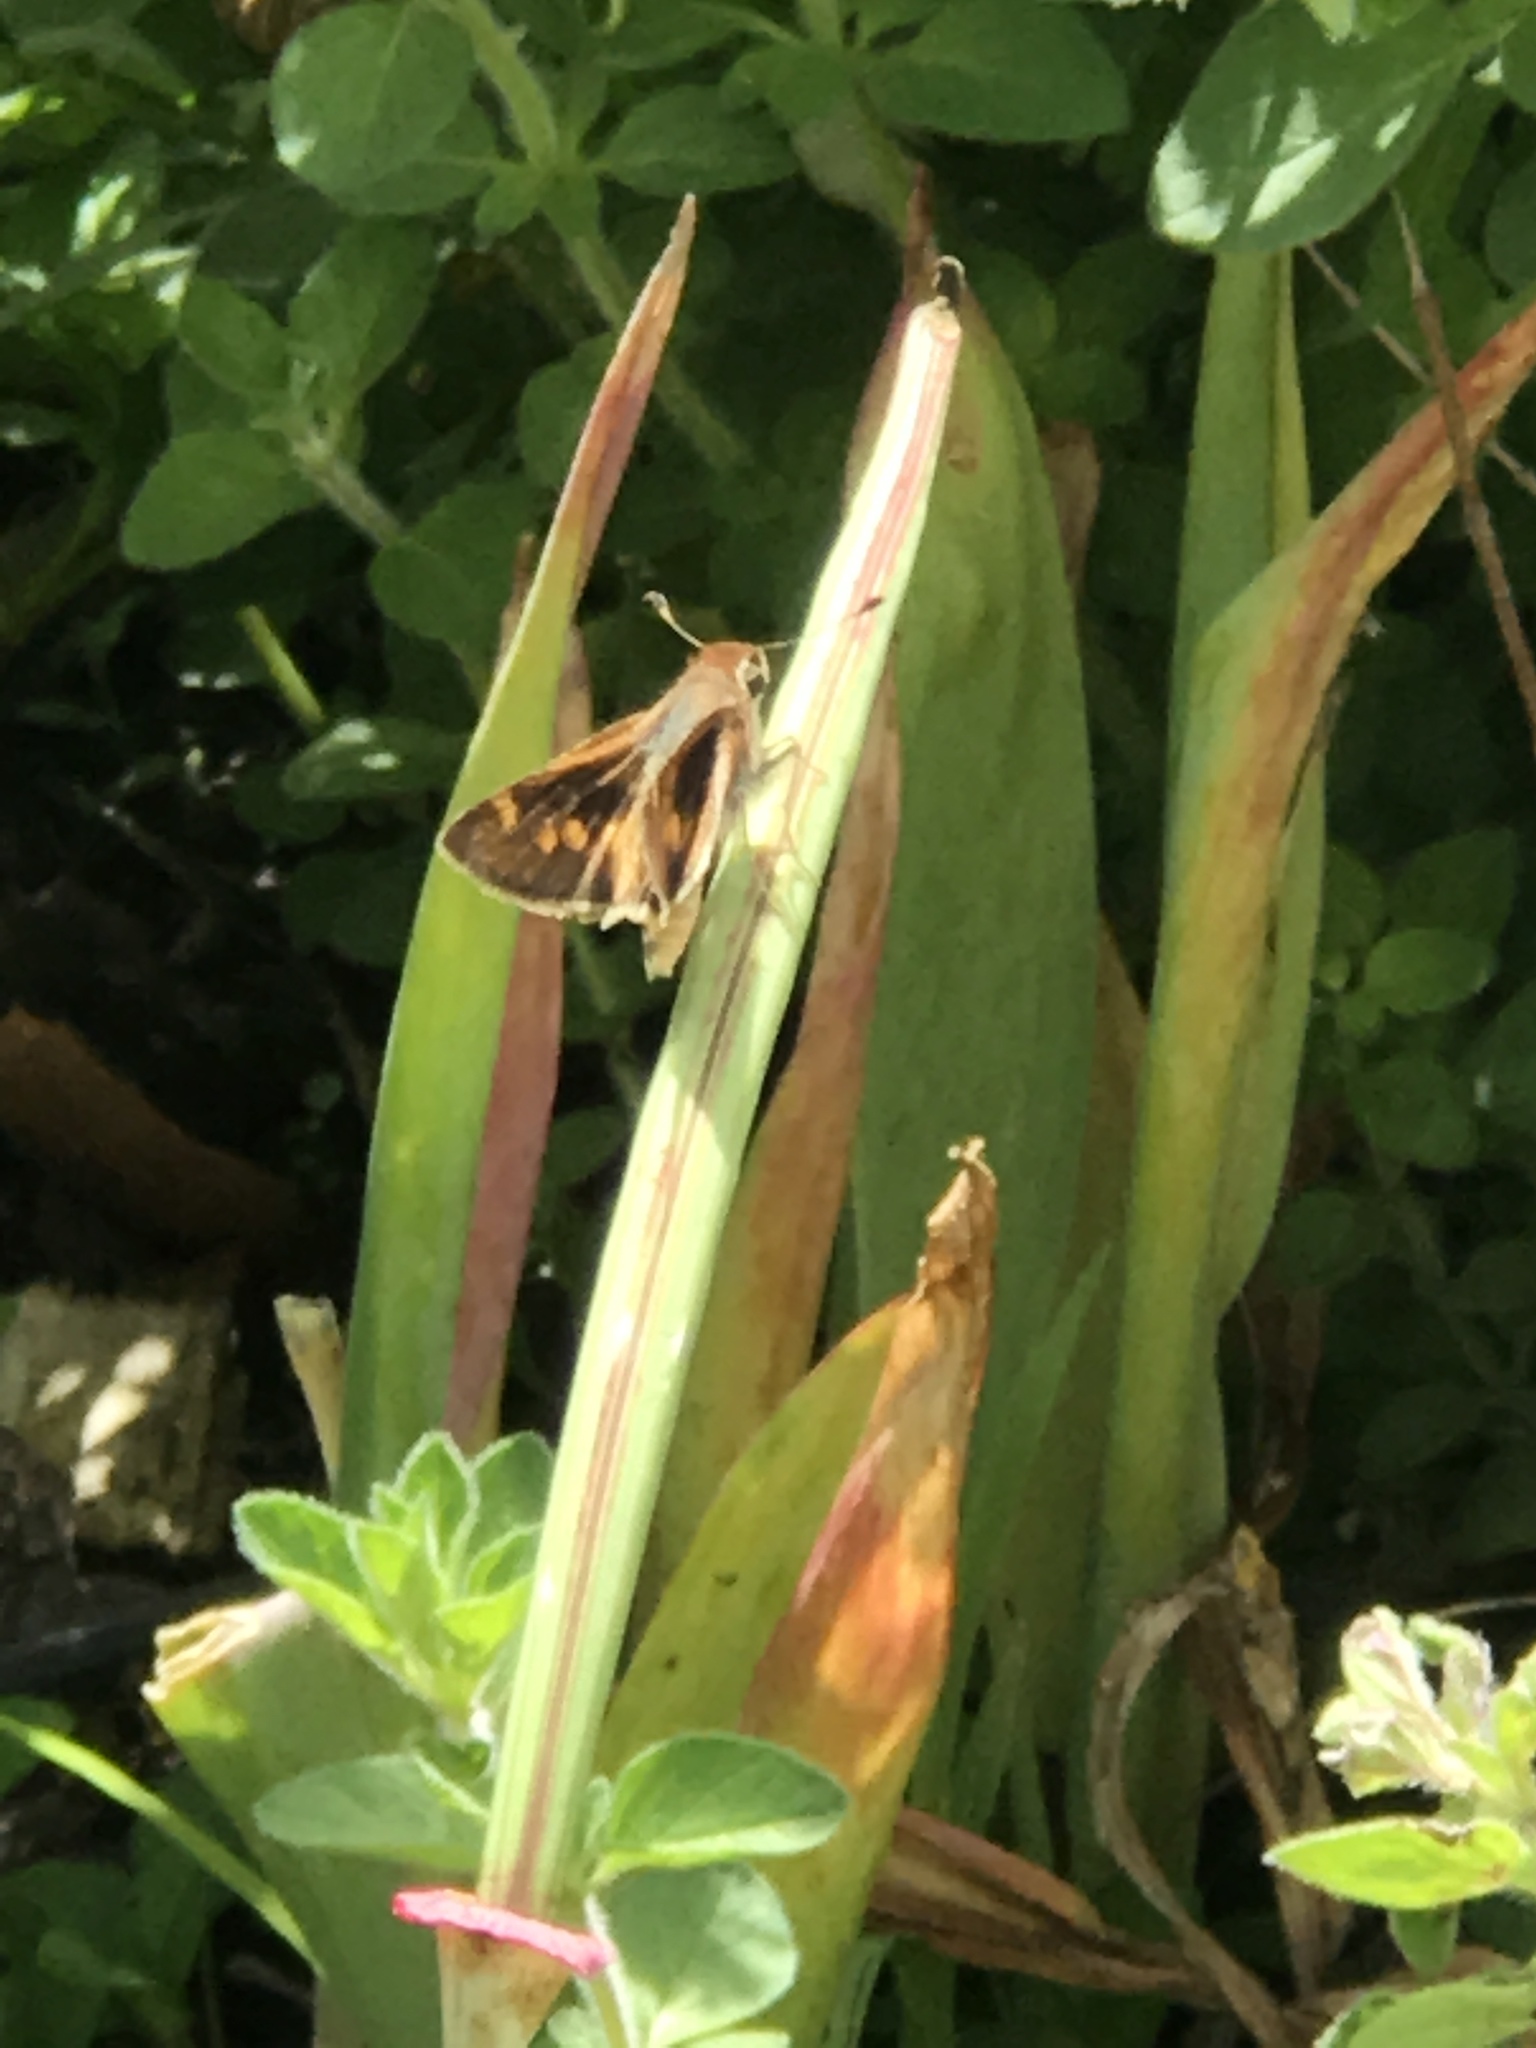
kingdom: Animalia
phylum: Arthropoda
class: Insecta
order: Lepidoptera
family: Hesperiidae
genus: Lon
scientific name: Lon melane
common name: Umber skipper
